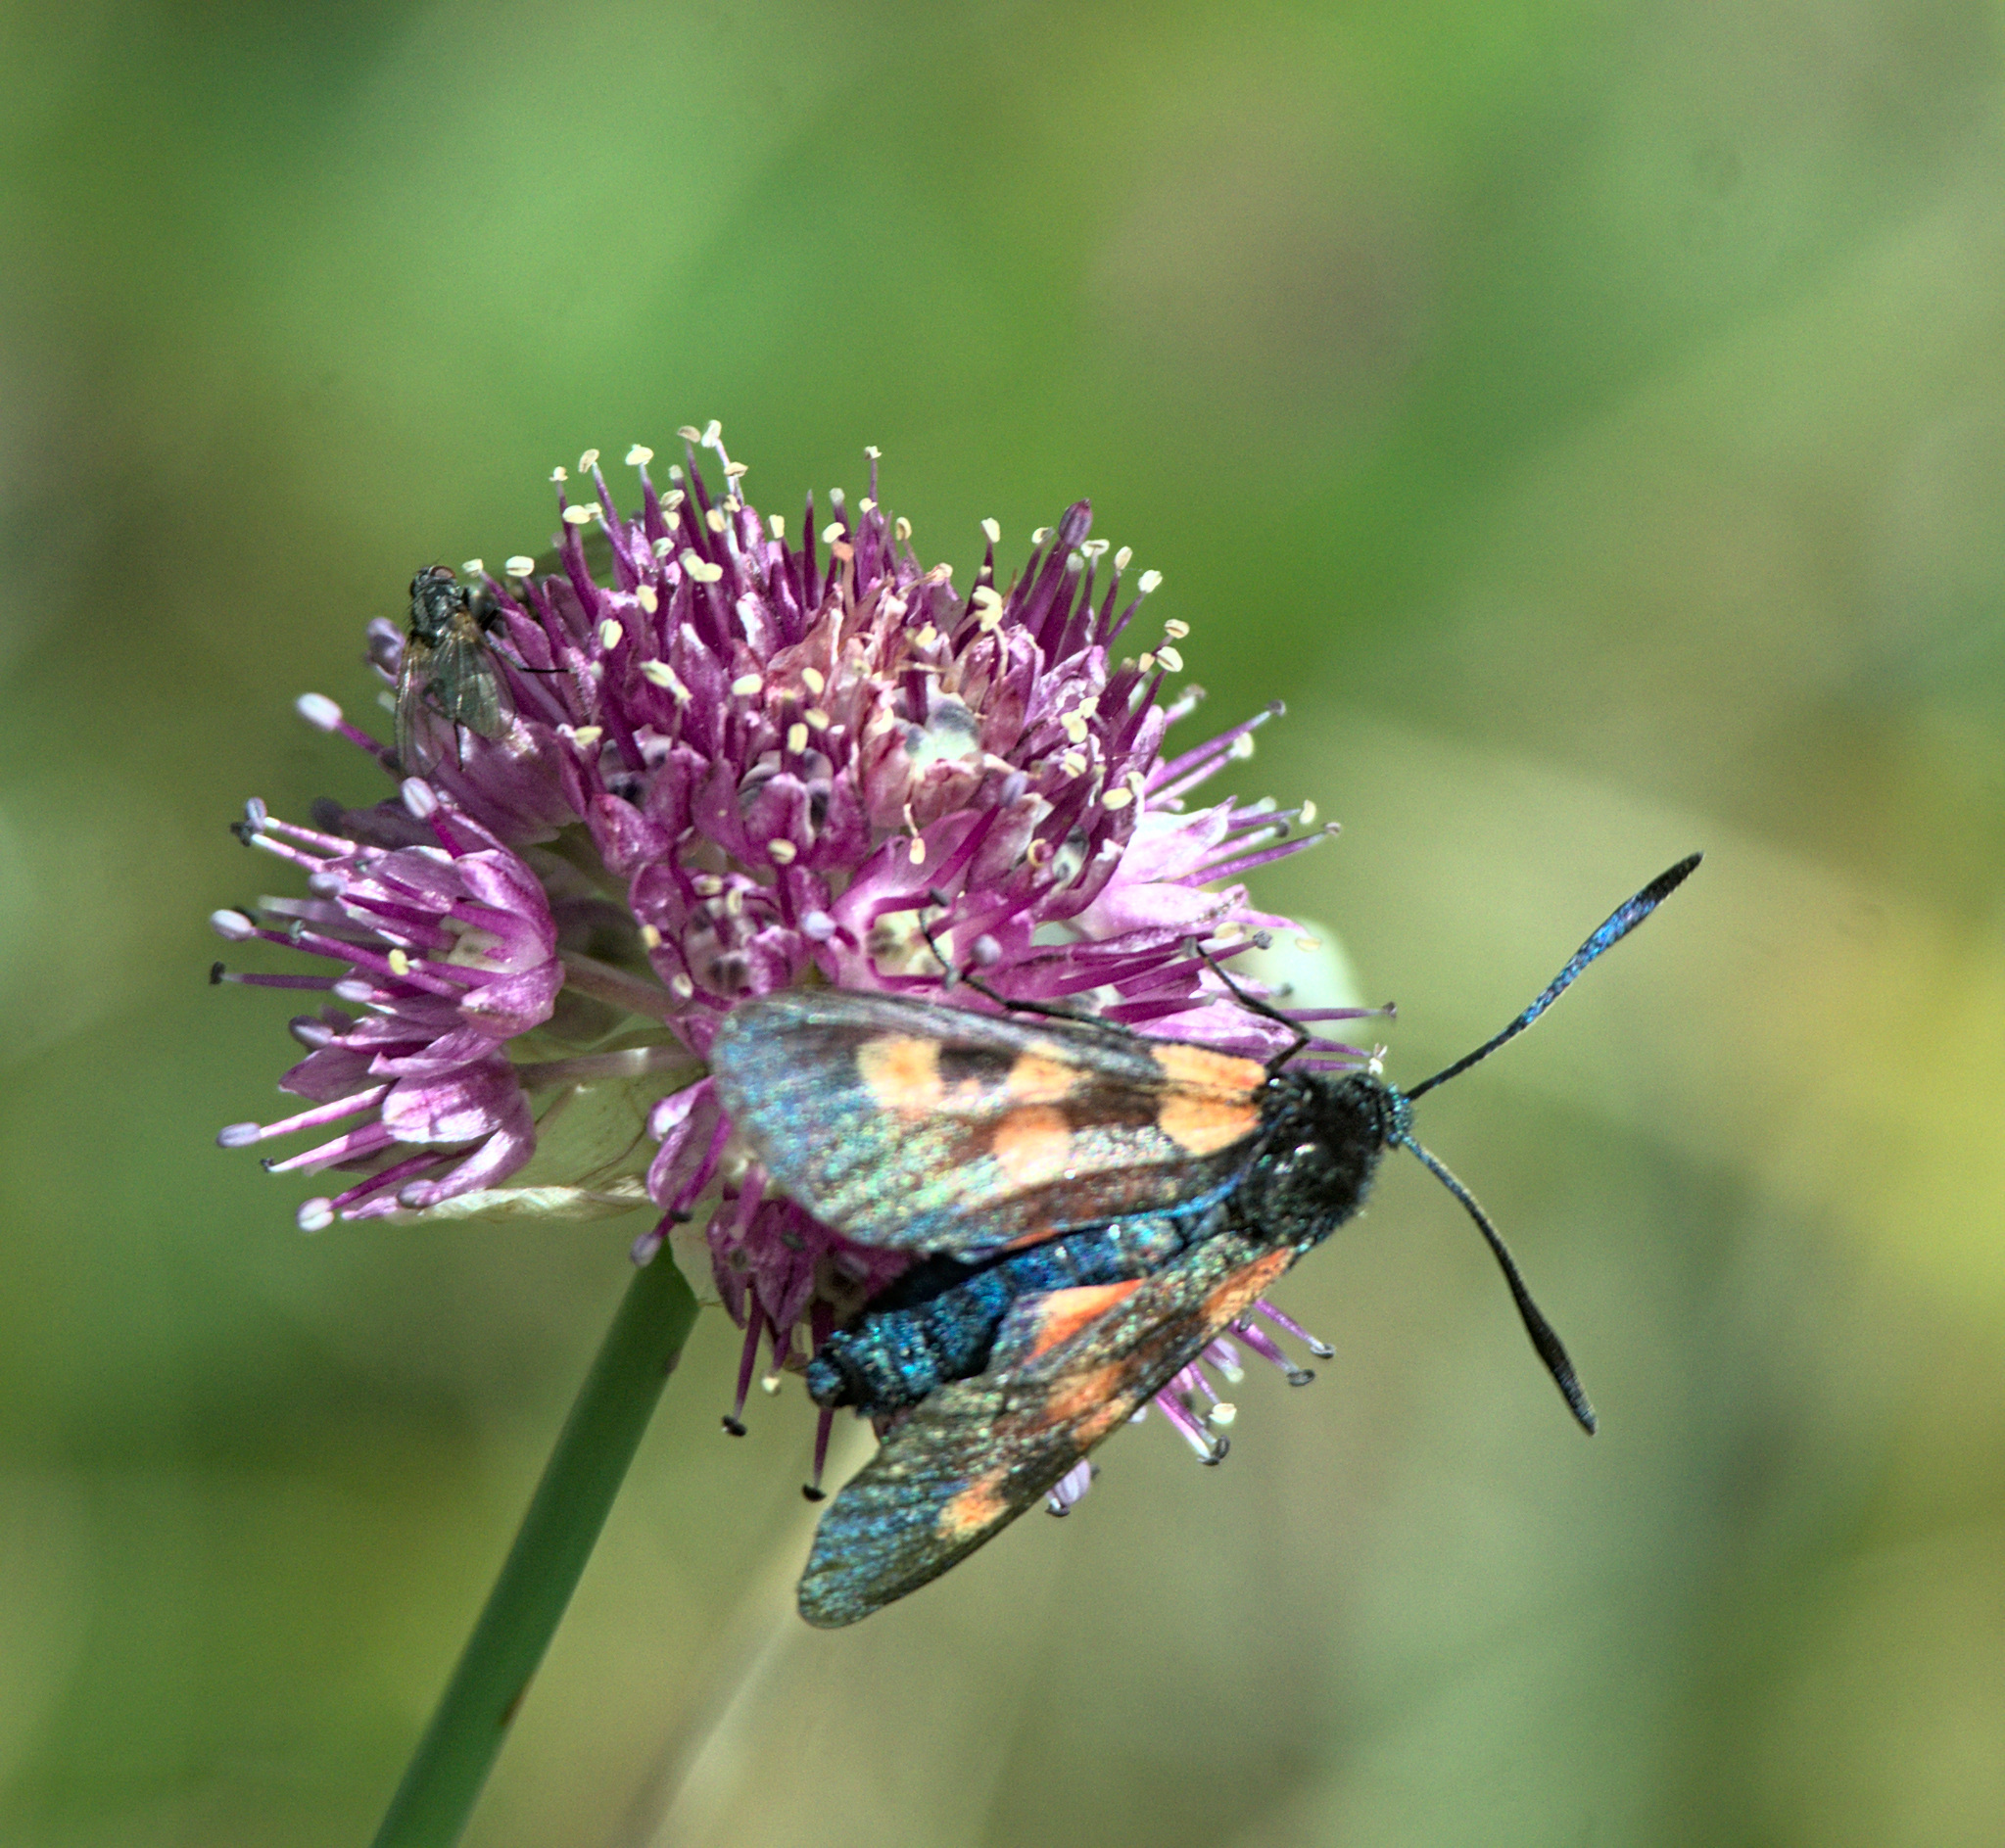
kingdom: Animalia
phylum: Arthropoda
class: Insecta
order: Lepidoptera
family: Zygaenidae
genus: Zygaena
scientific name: Zygaena lonicerae
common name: Narrow-bordered five-spot burnet
